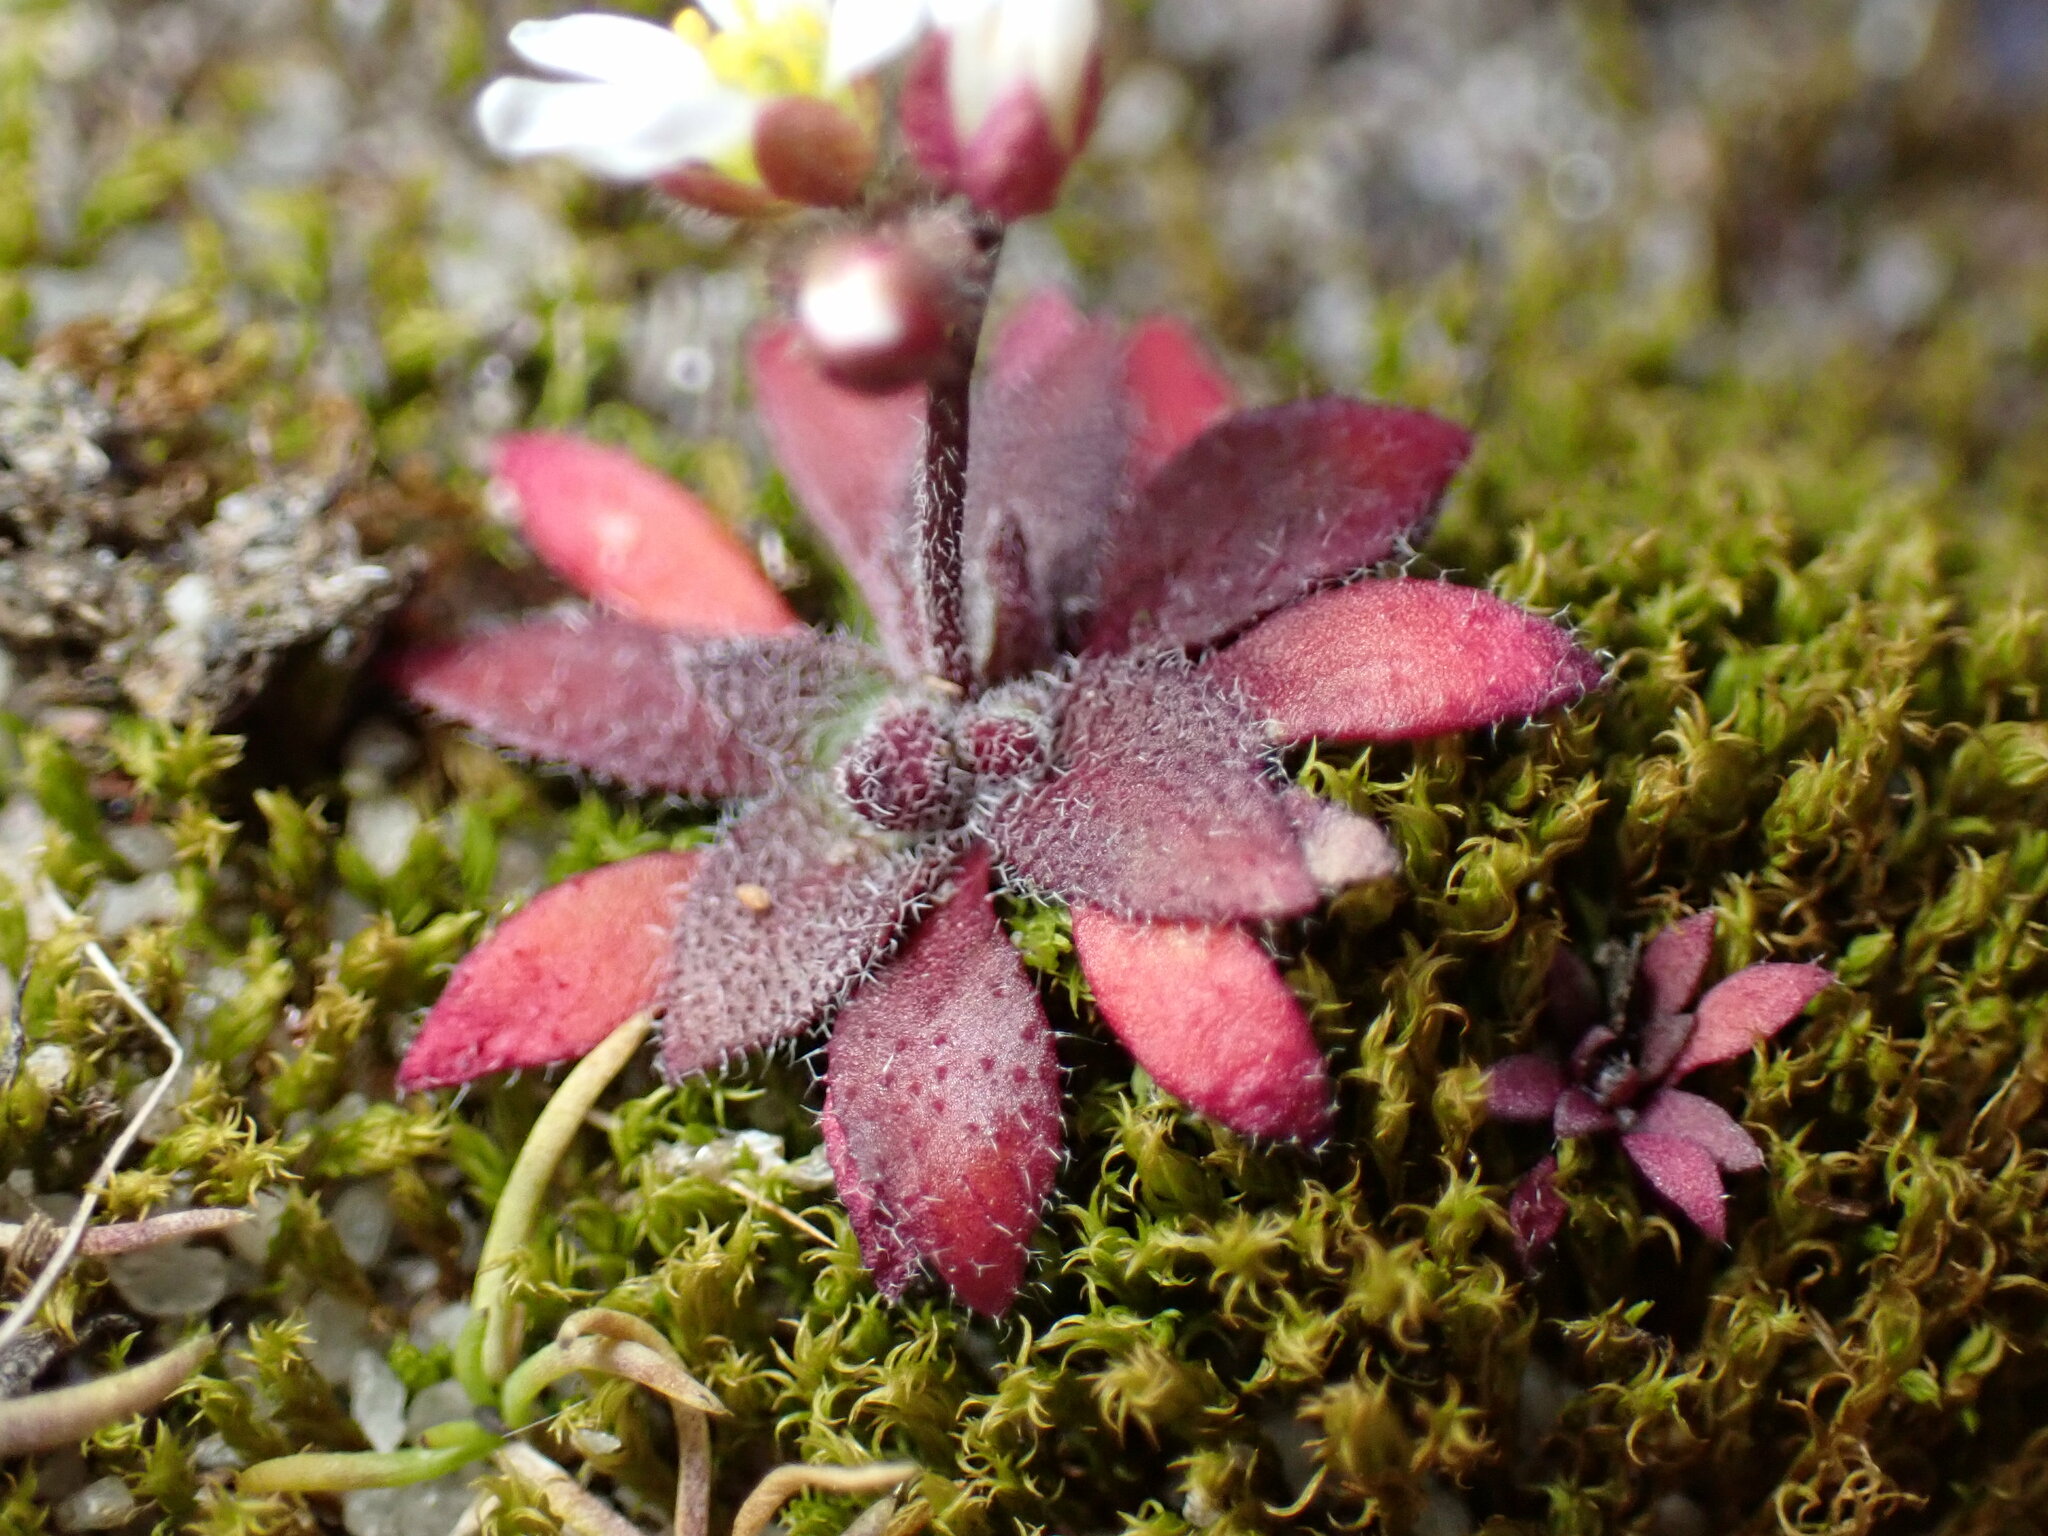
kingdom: Plantae
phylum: Tracheophyta
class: Magnoliopsida
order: Brassicales
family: Brassicaceae
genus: Draba
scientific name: Draba verna
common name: Spring draba
